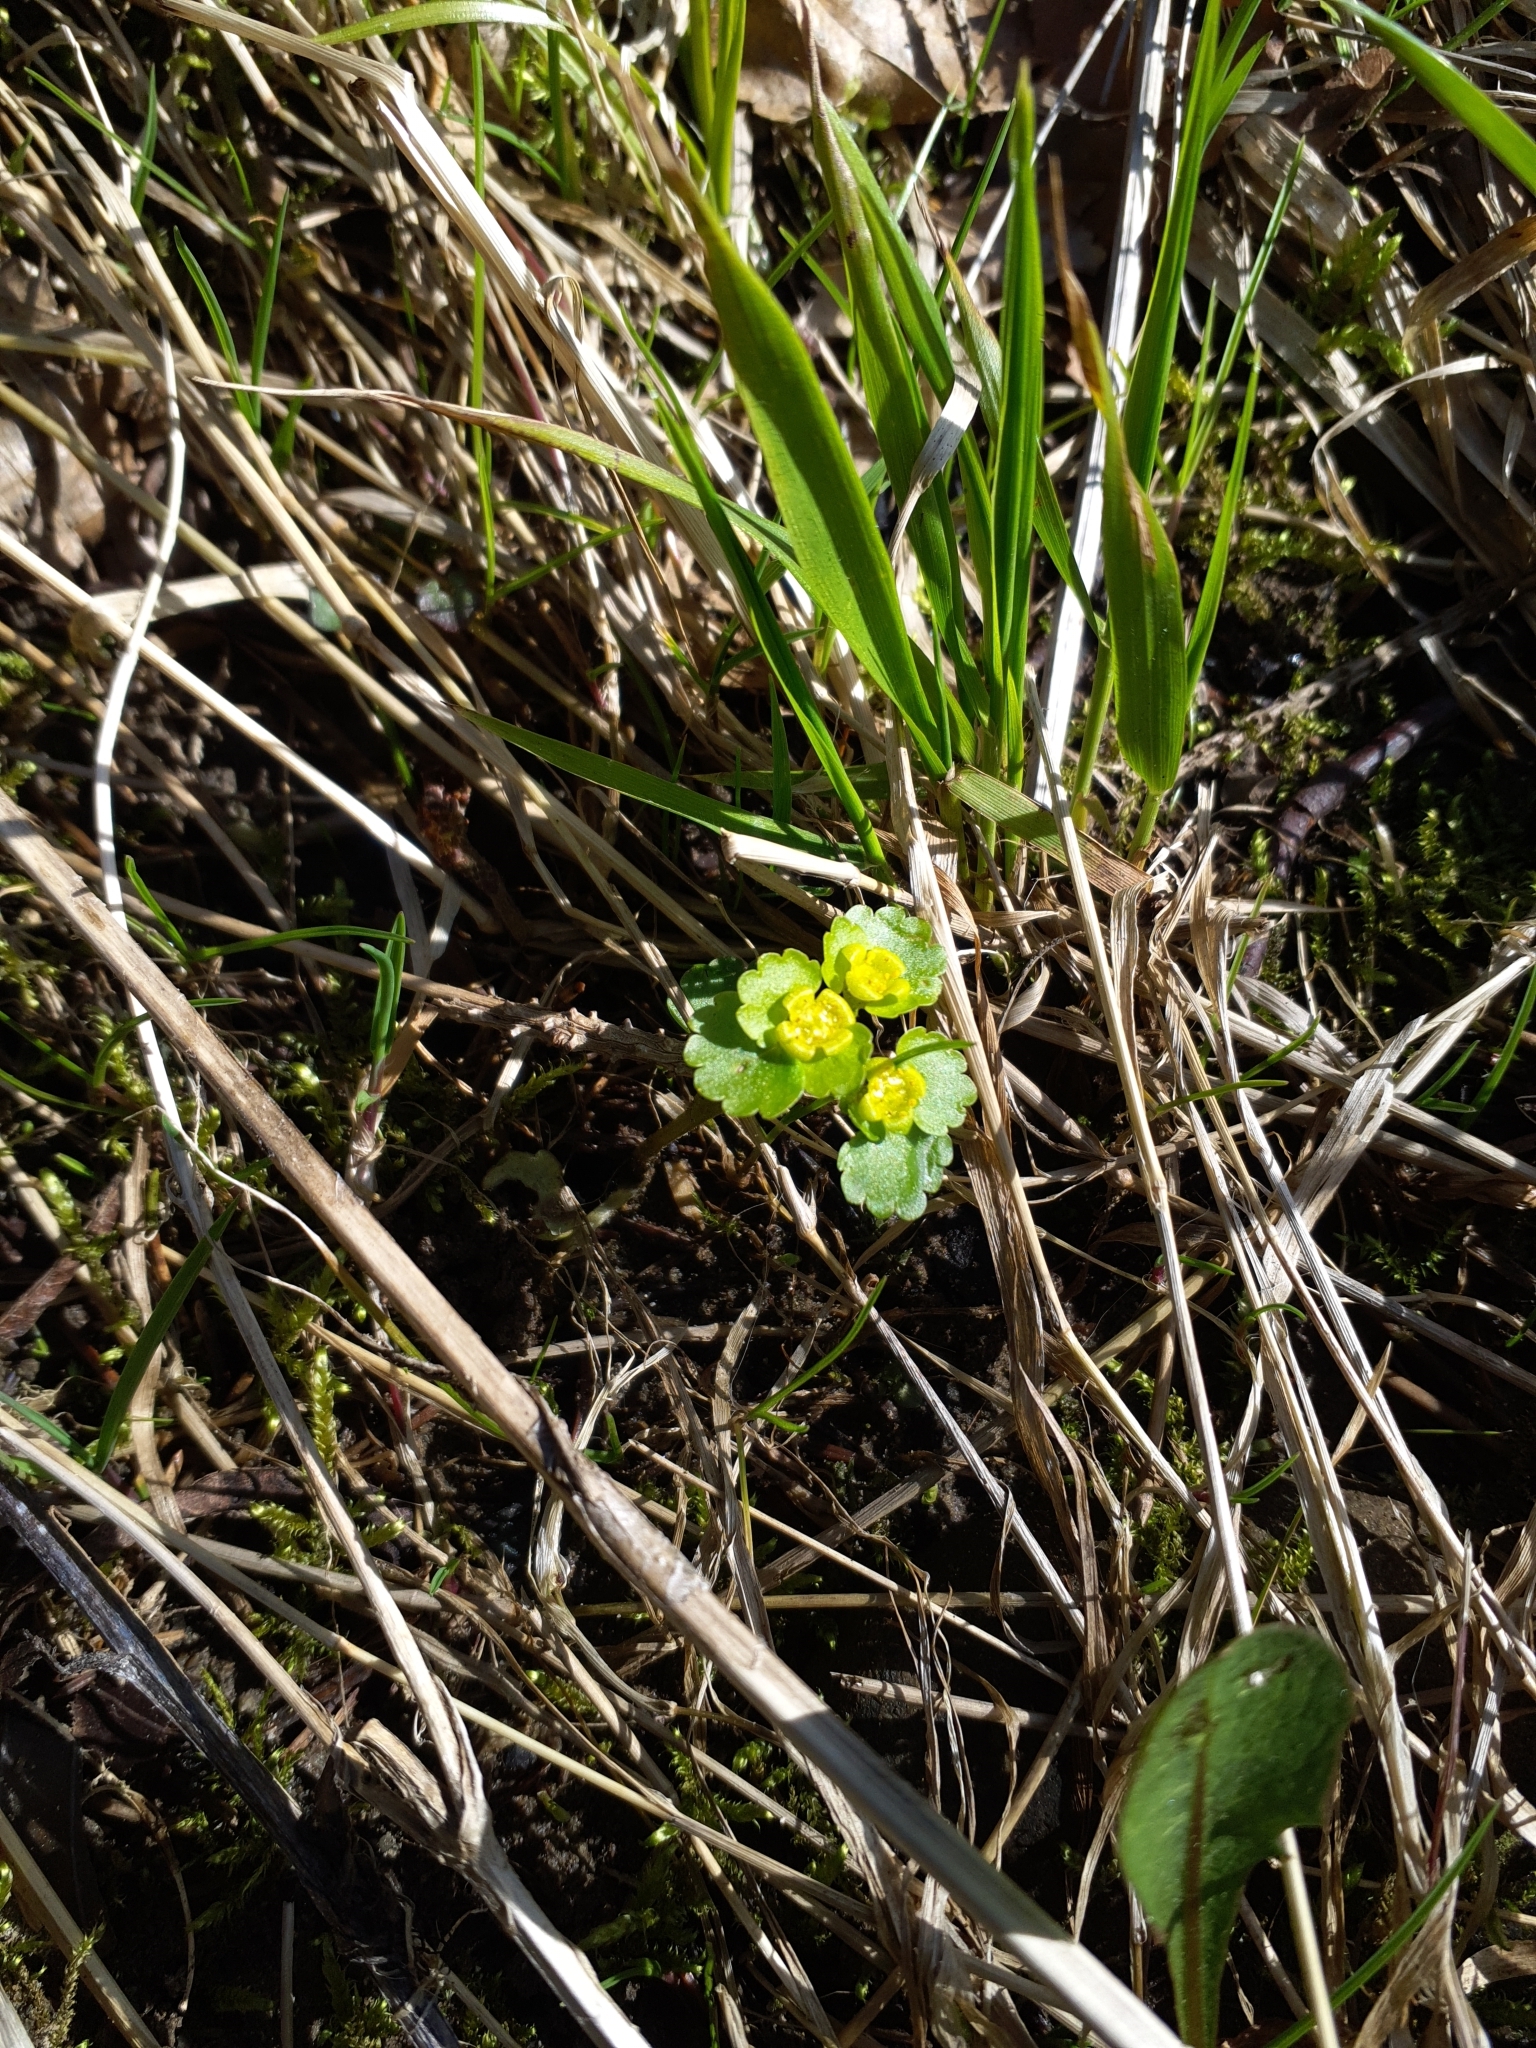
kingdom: Plantae
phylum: Tracheophyta
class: Magnoliopsida
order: Saxifragales
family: Saxifragaceae
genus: Chrysosplenium
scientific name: Chrysosplenium alternifolium
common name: Alternate-leaved golden-saxifrage
